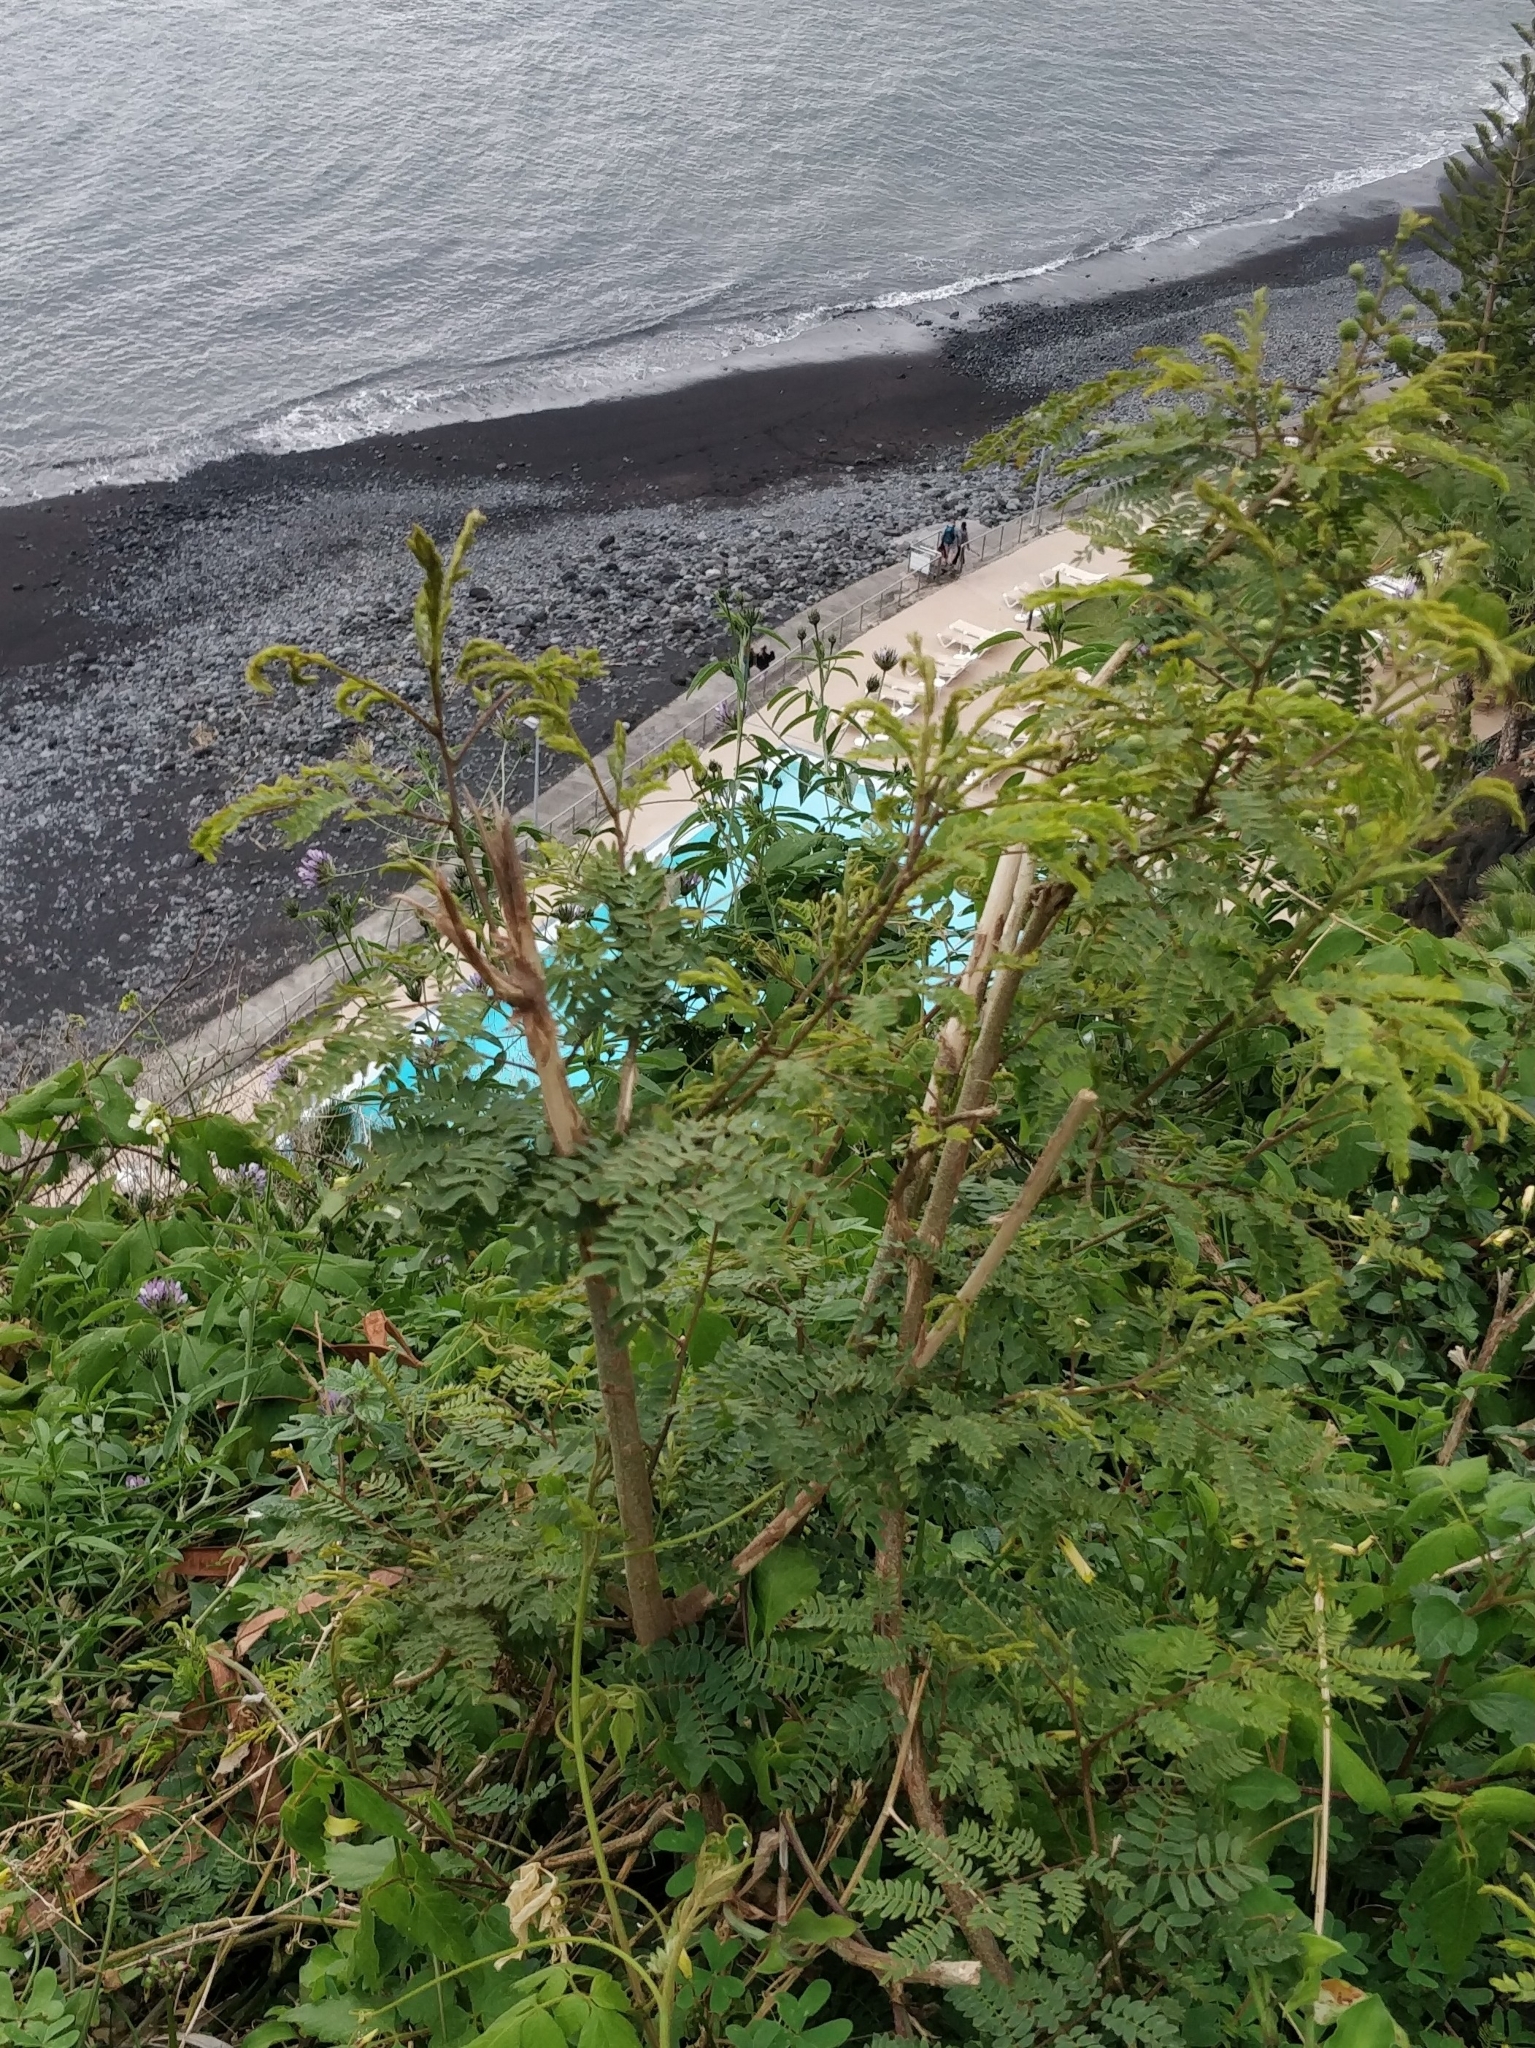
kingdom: Plantae
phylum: Tracheophyta
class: Magnoliopsida
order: Fabales
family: Fabaceae
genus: Leucaena
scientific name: Leucaena leucocephala
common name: White leadtree
